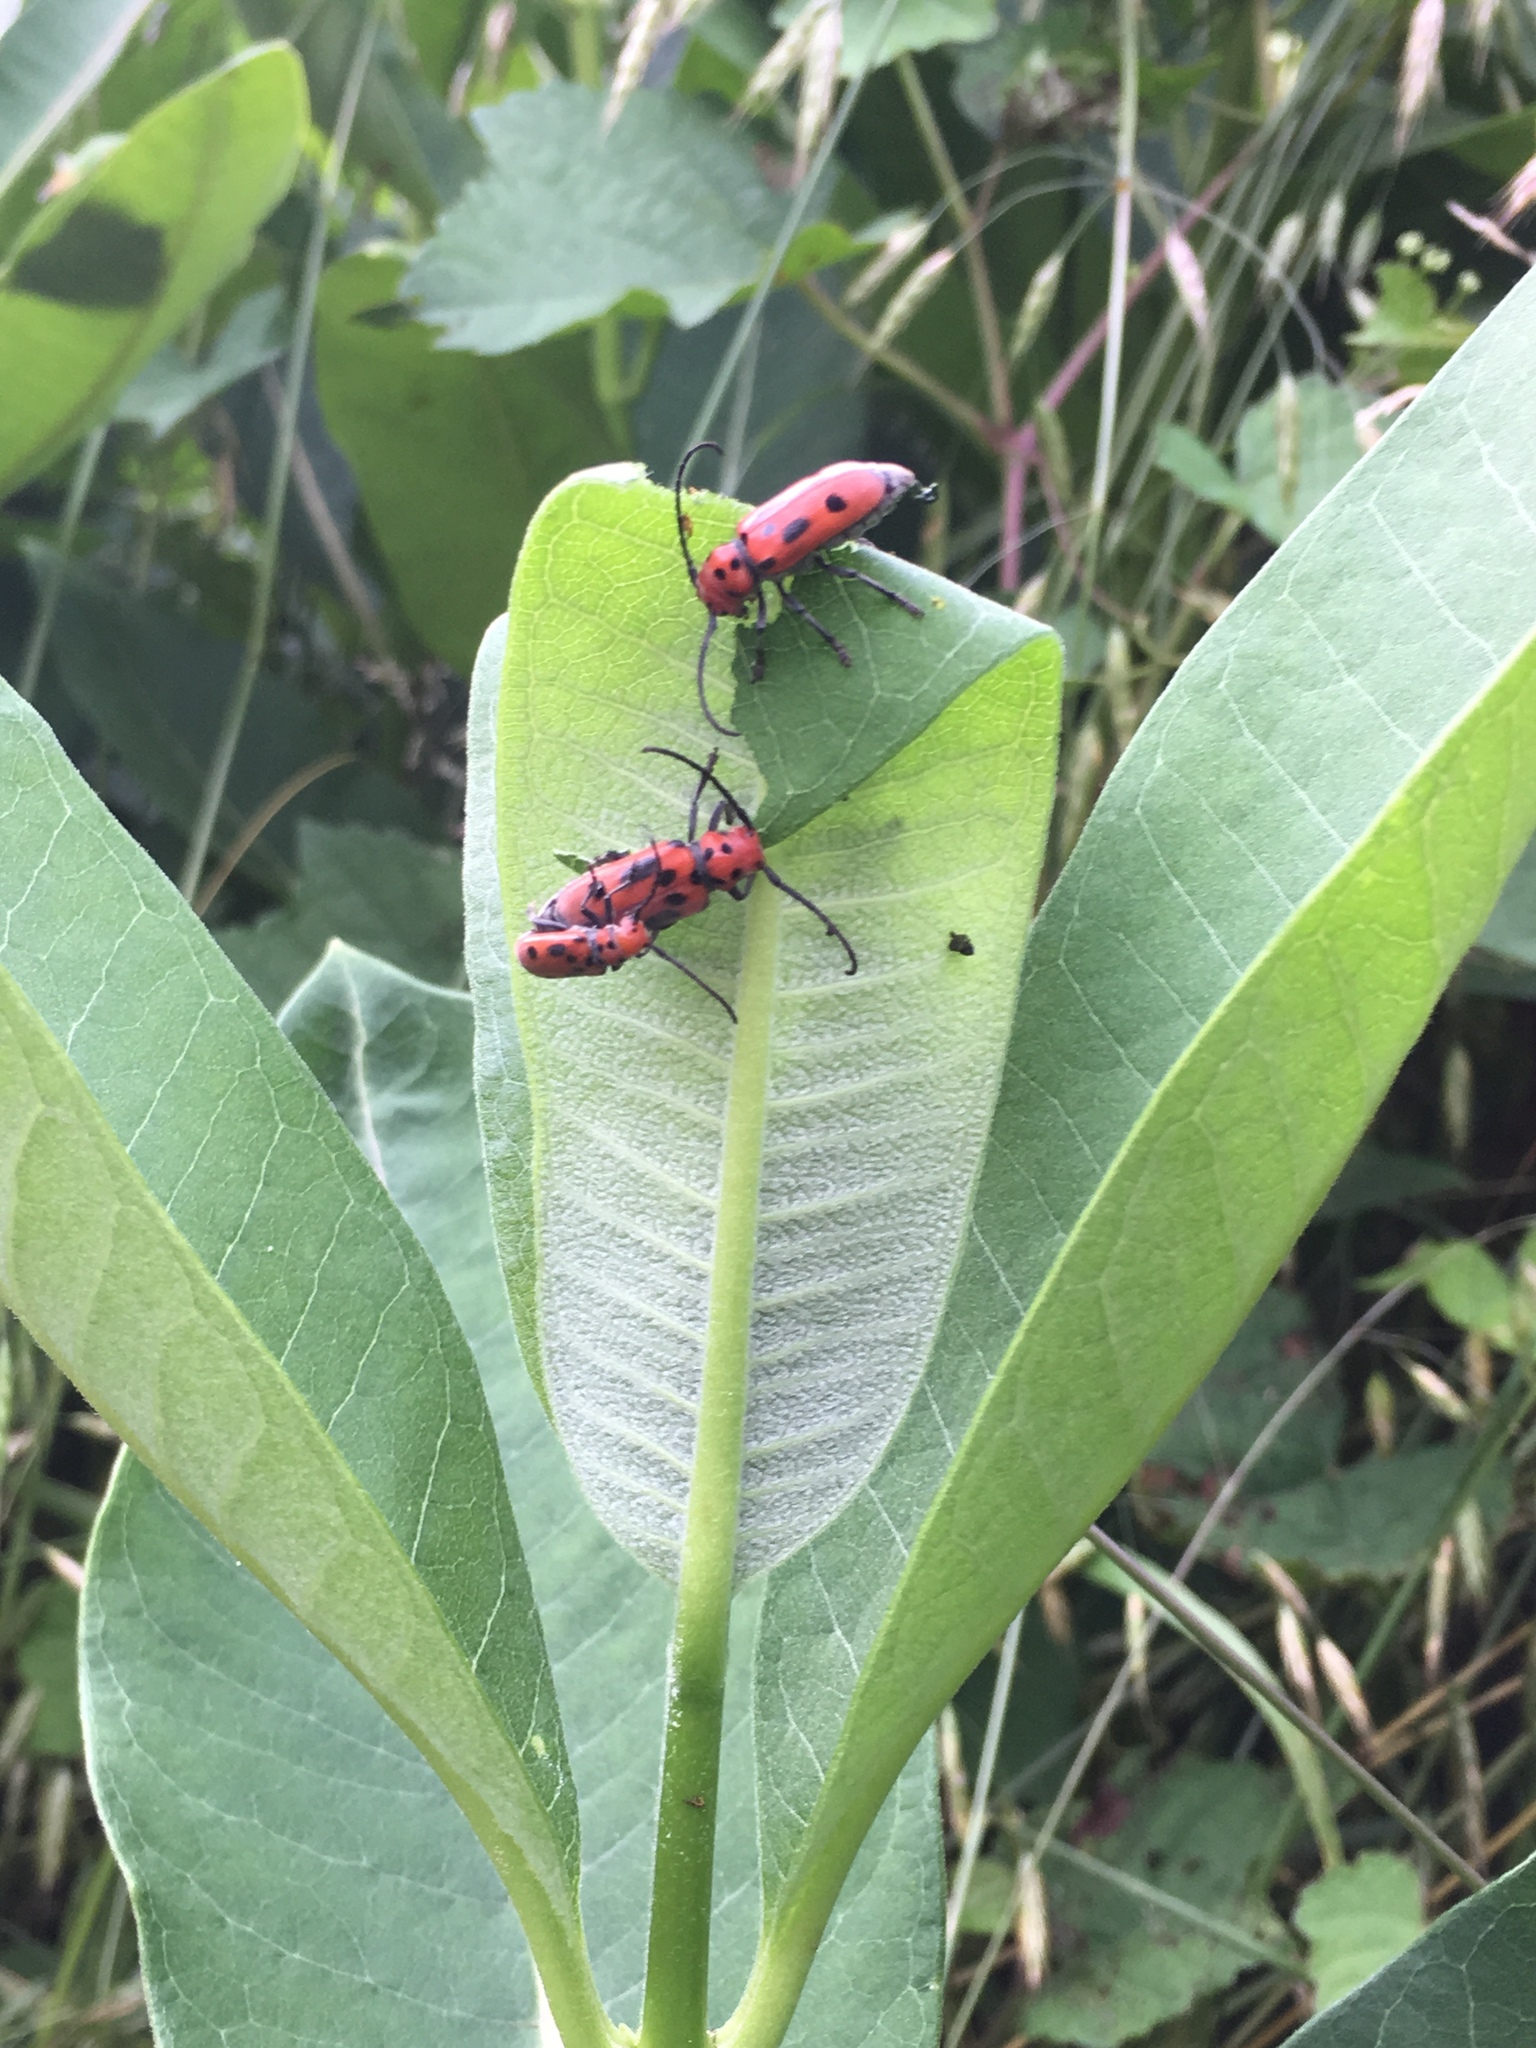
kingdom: Animalia
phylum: Arthropoda
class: Insecta
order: Coleoptera
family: Cerambycidae
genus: Tetraopes
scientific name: Tetraopes tetrophthalmus
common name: Red milkweed beetle
